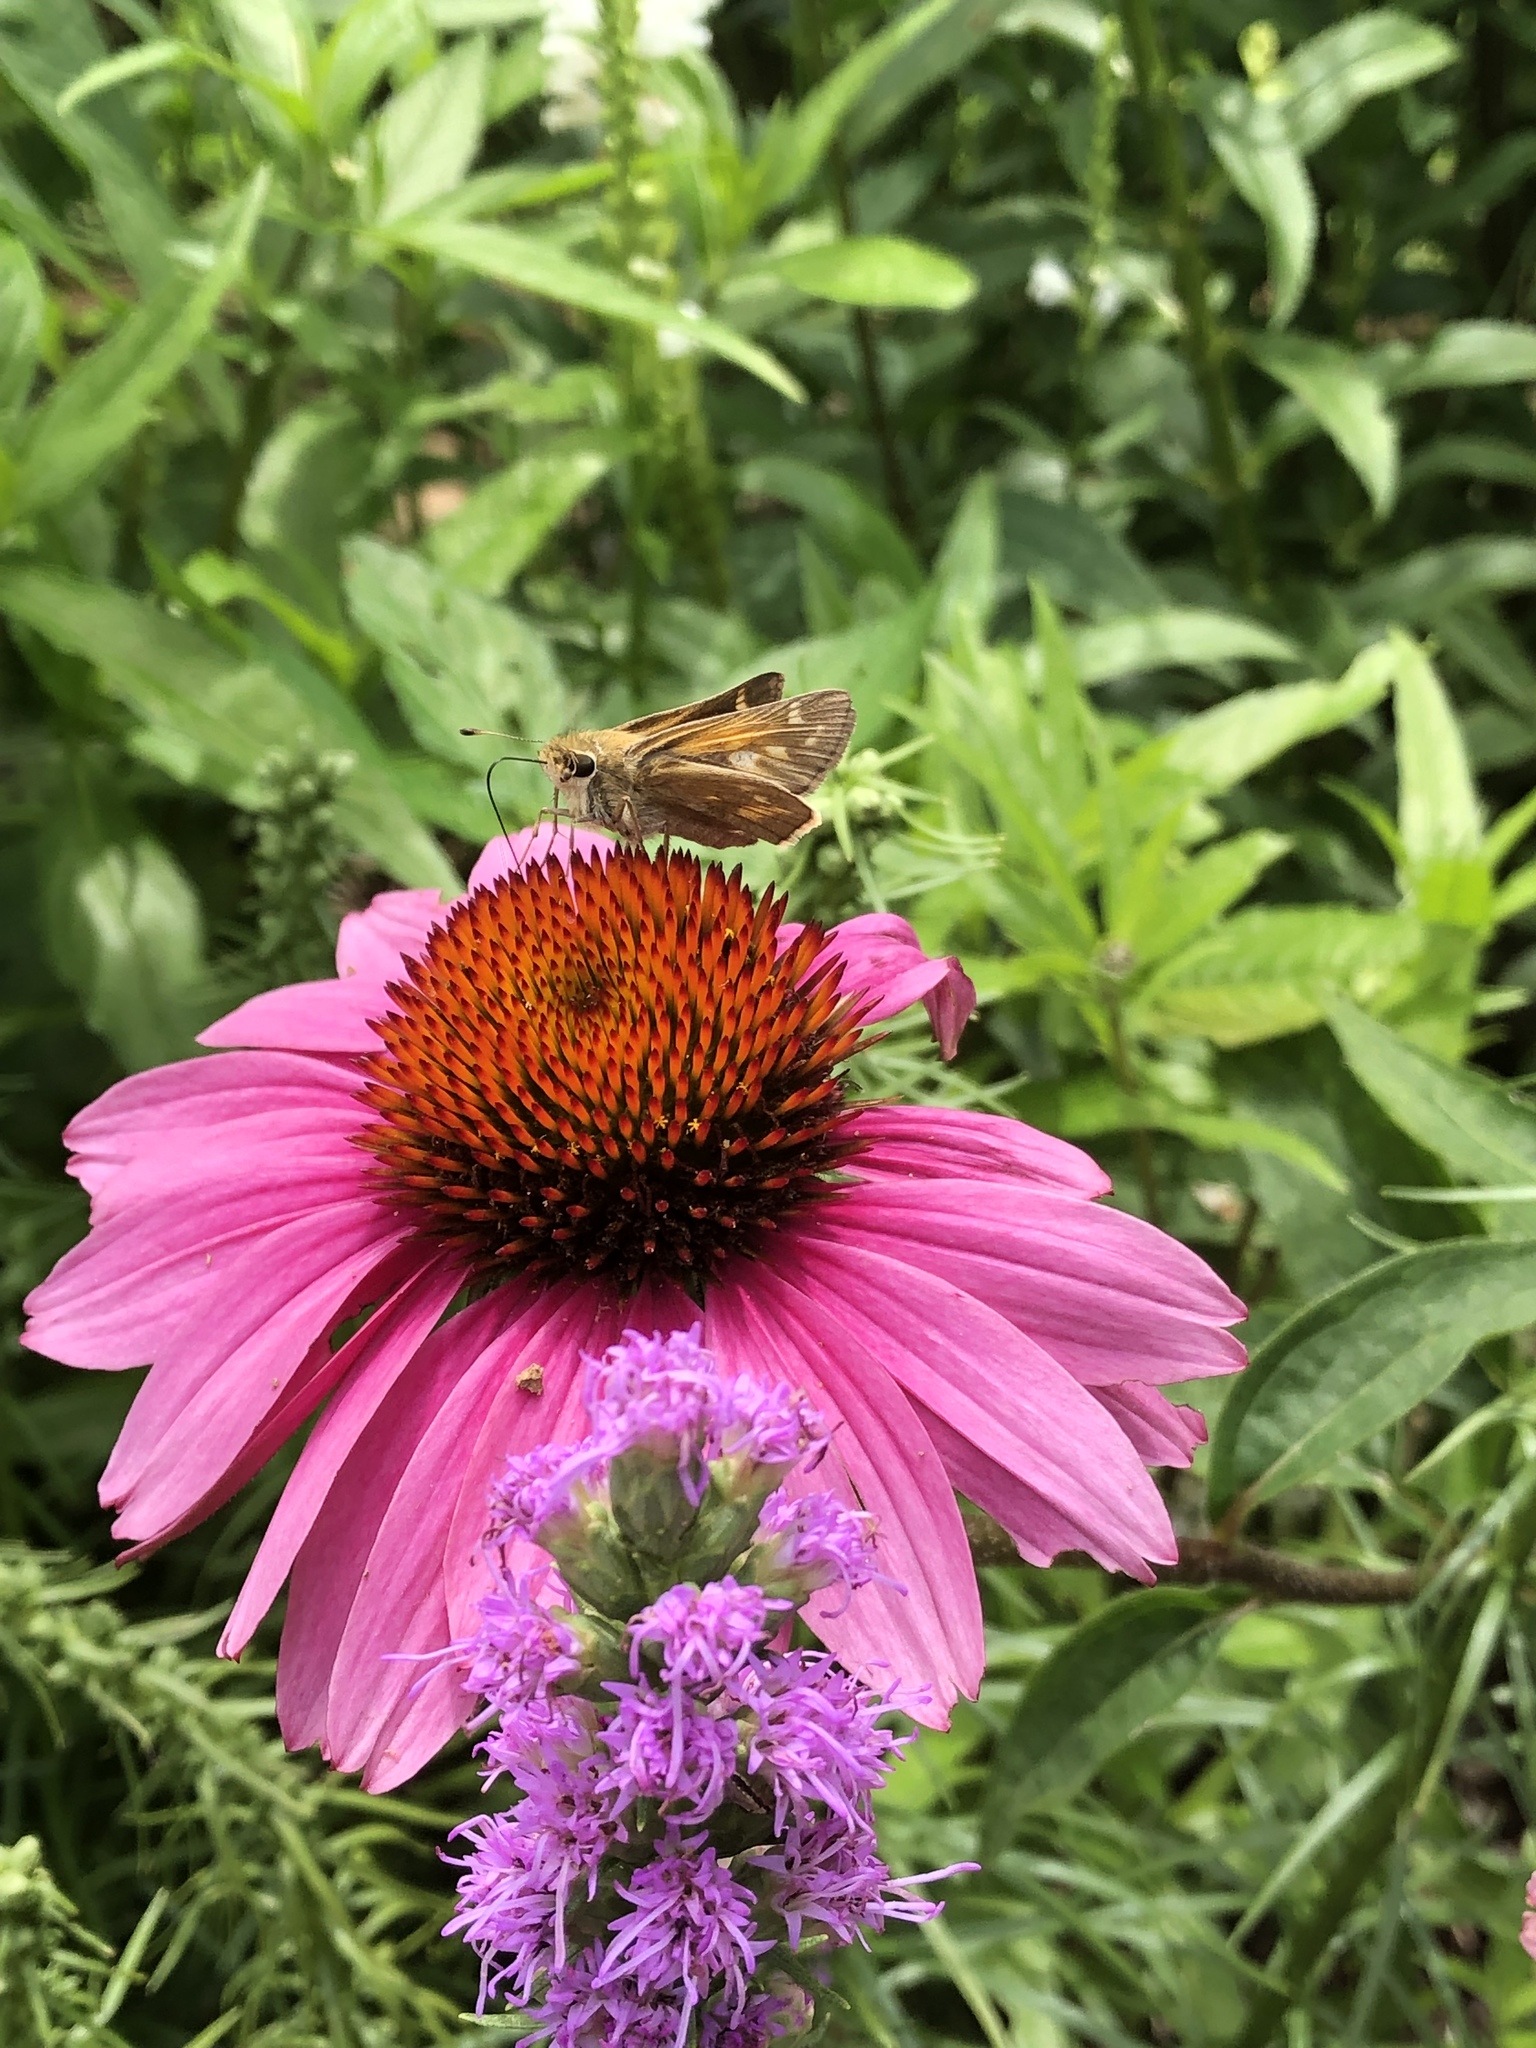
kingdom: Animalia
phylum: Arthropoda
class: Insecta
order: Lepidoptera
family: Hesperiidae
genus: Atalopedes
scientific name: Atalopedes
